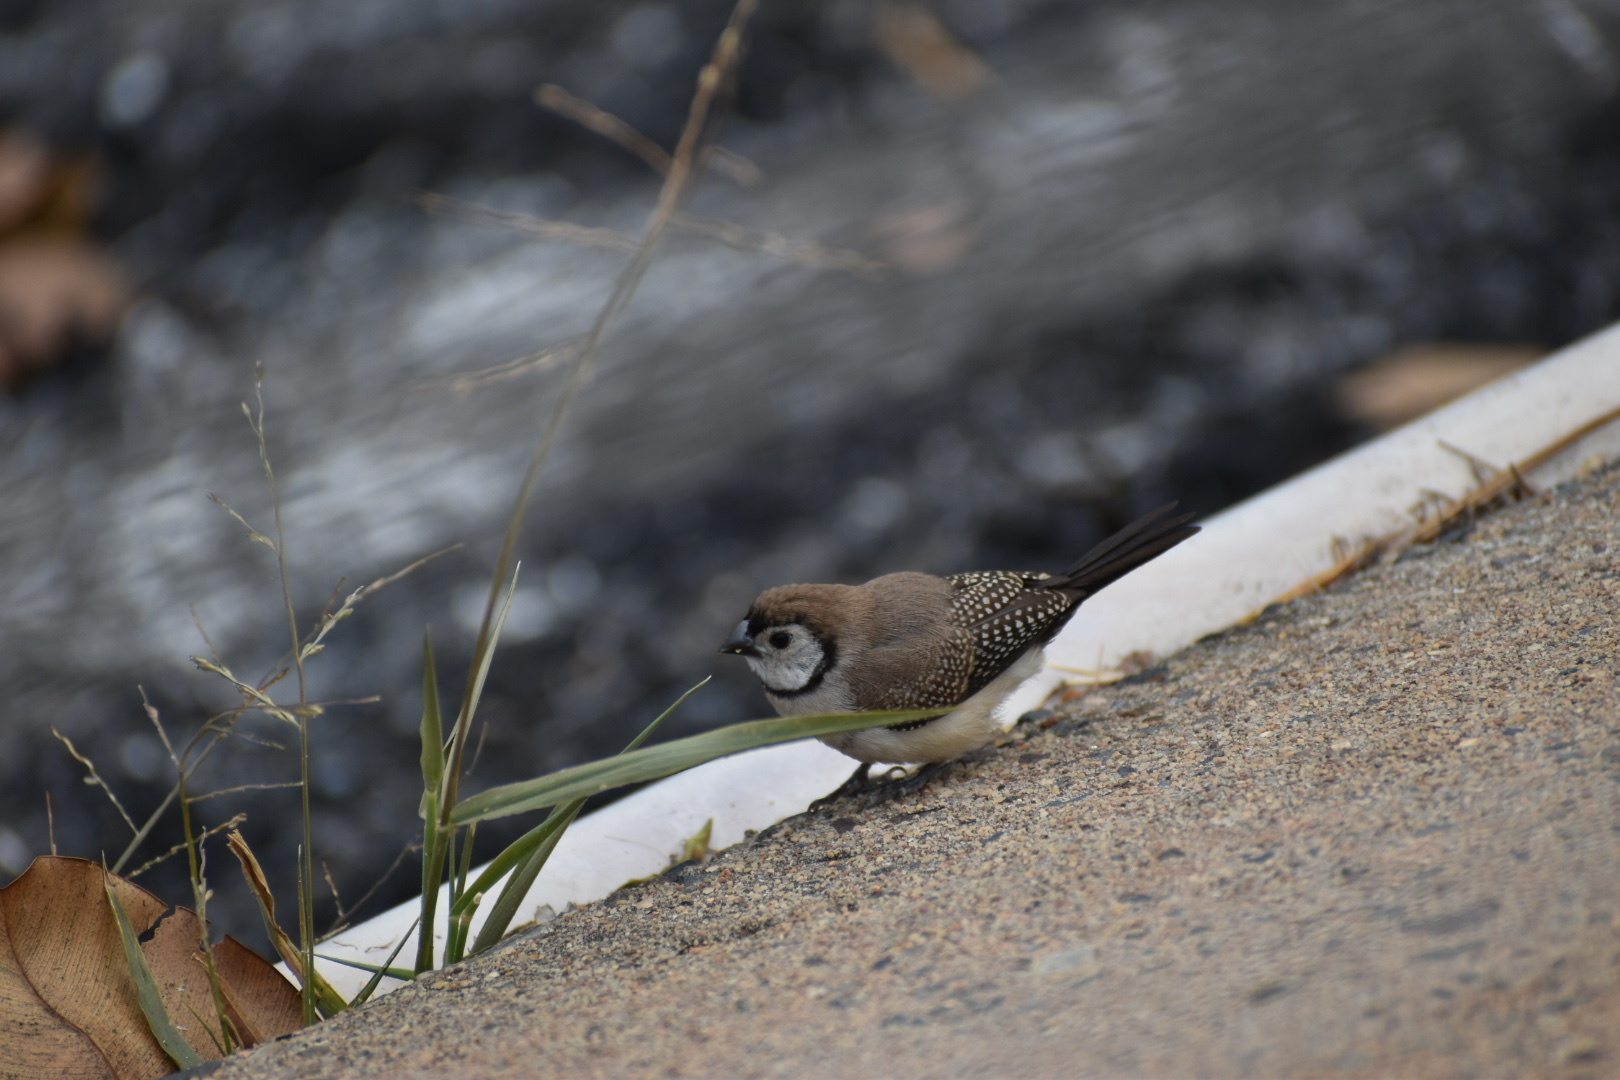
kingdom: Animalia
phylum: Chordata
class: Aves
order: Passeriformes
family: Estrildidae
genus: Taeniopygia
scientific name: Taeniopygia bichenovii
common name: Double-barred finch
